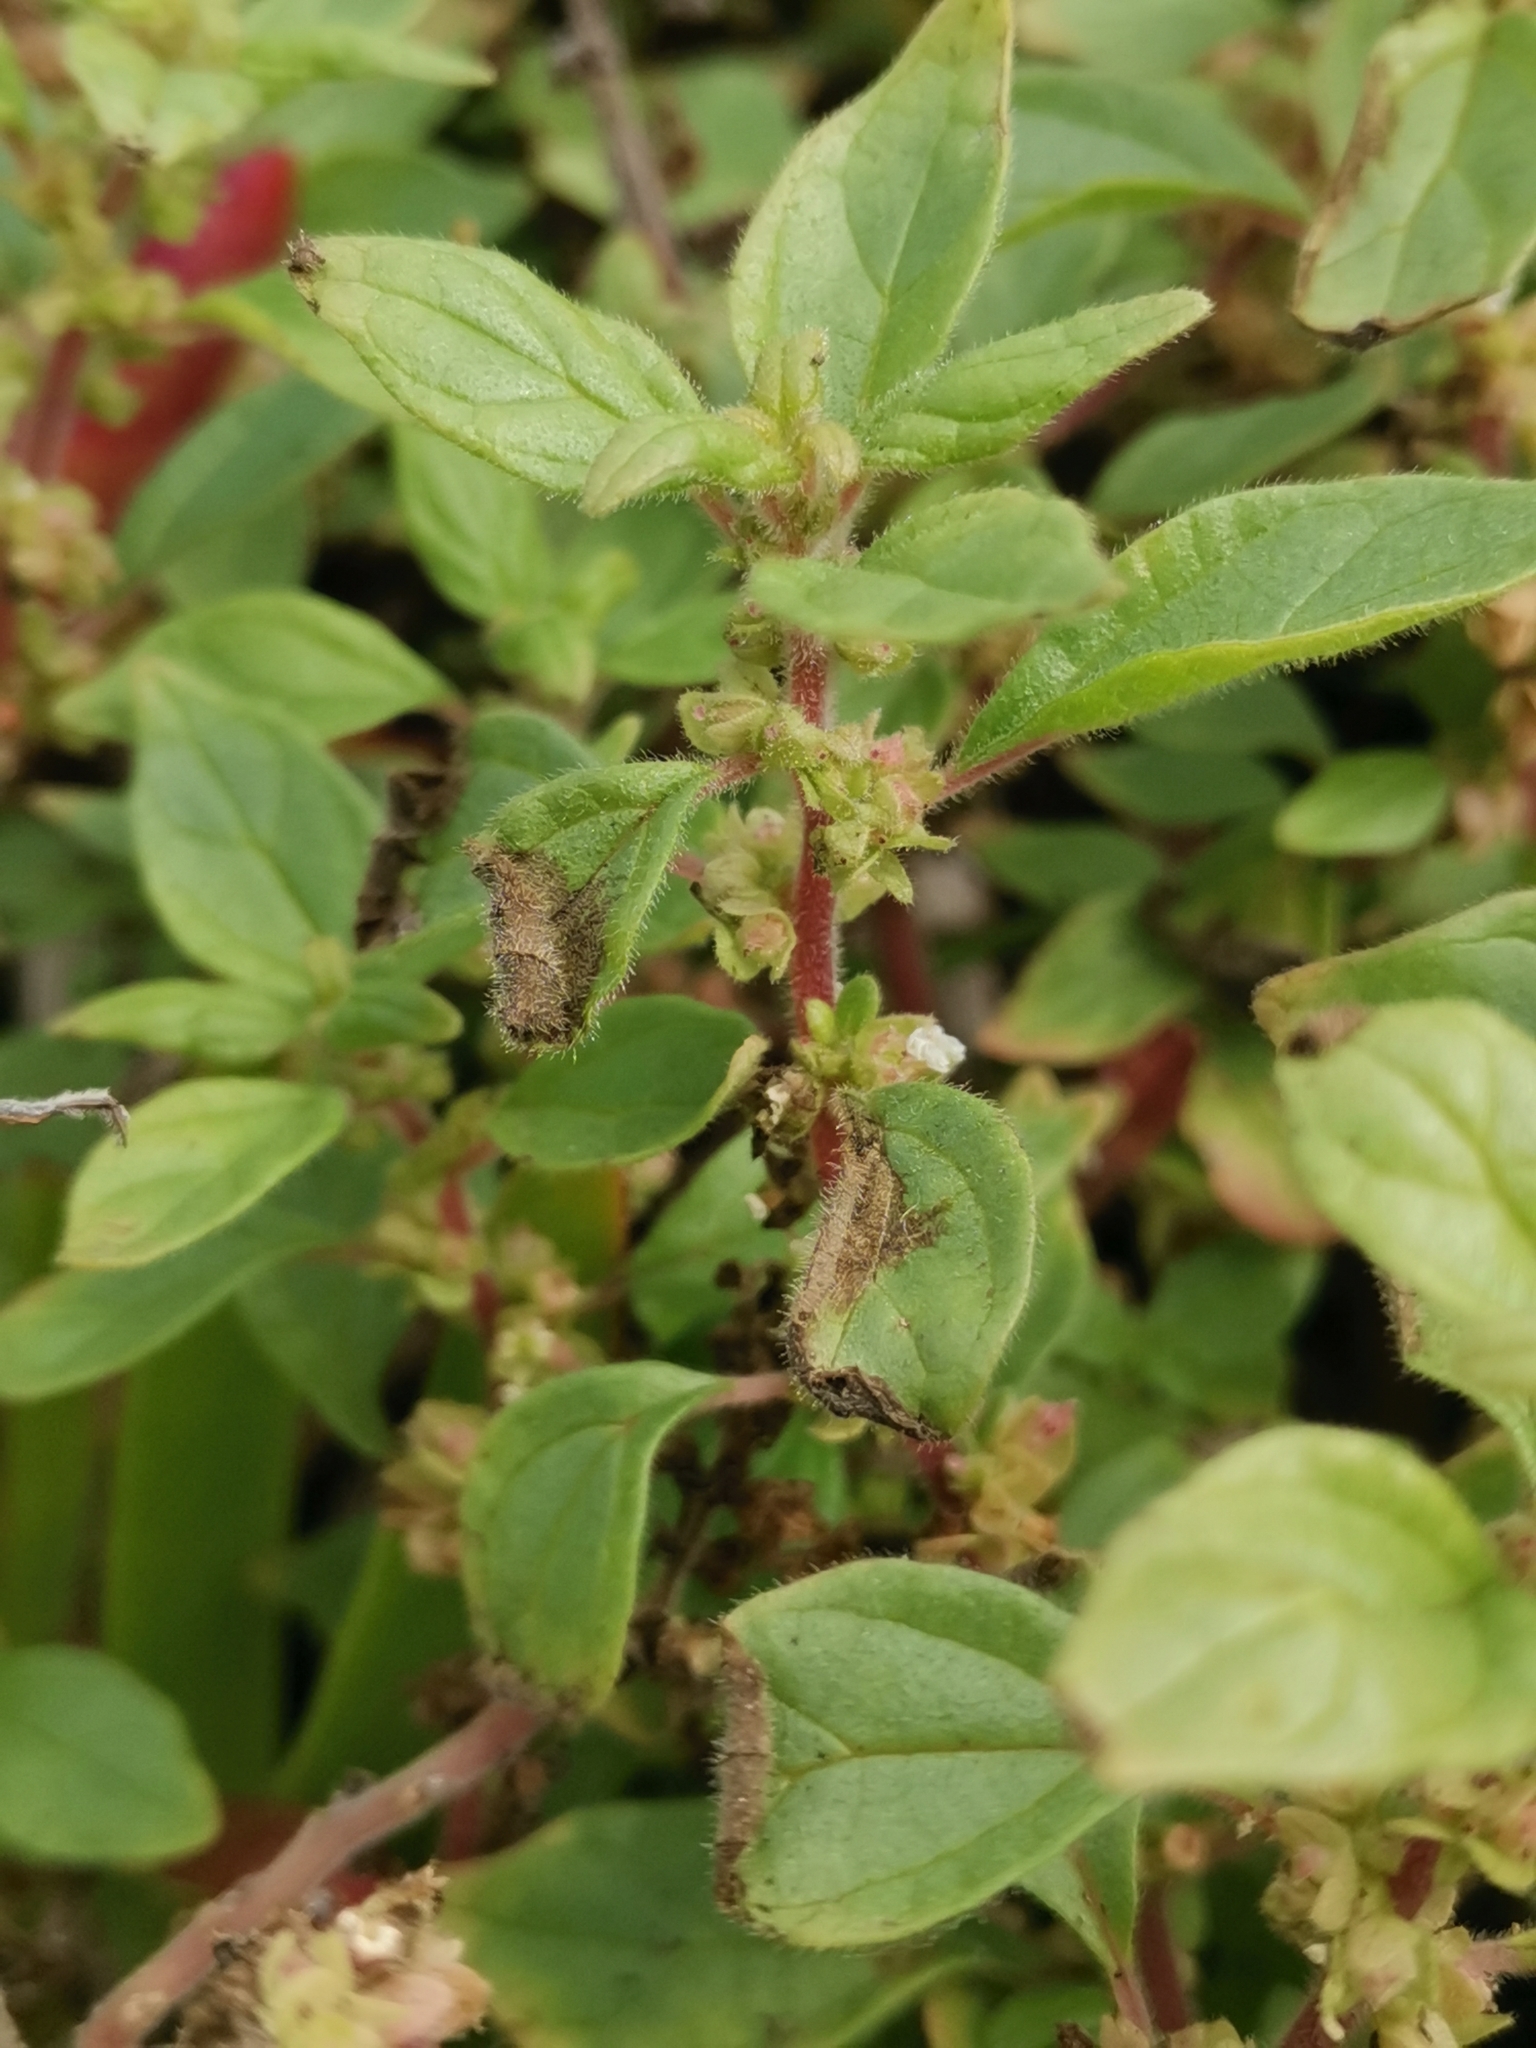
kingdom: Plantae
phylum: Tracheophyta
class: Magnoliopsida
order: Rosales
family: Urticaceae
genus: Parietaria
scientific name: Parietaria judaica
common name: Pellitory-of-the-wall
